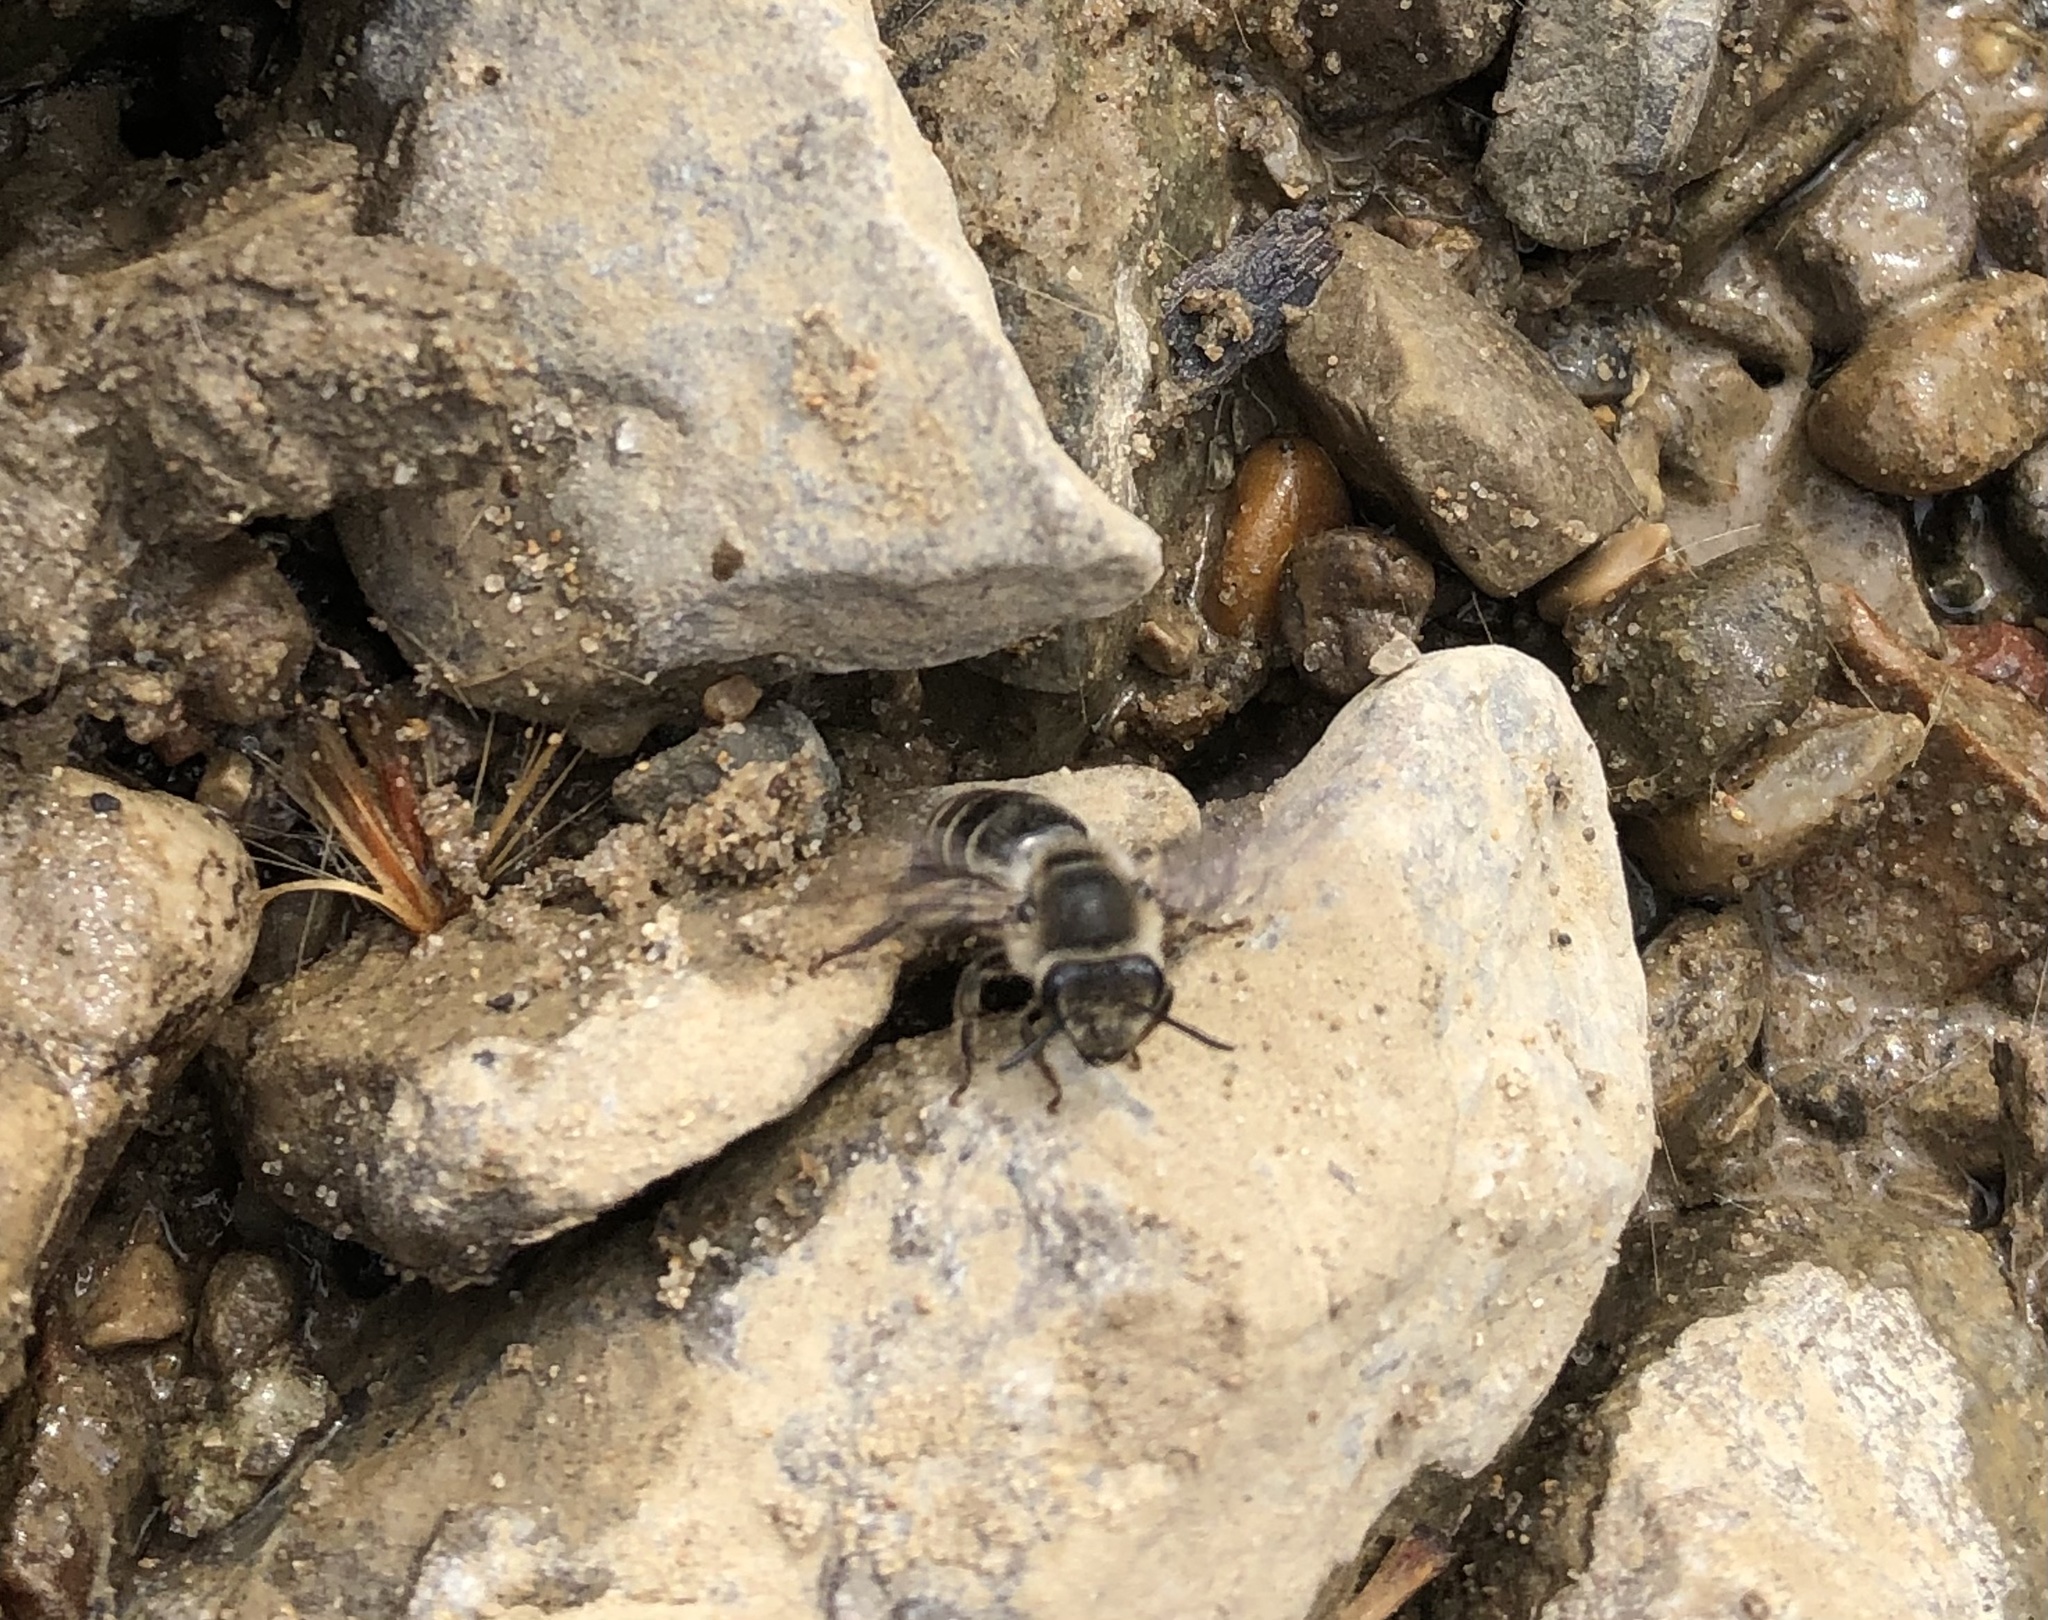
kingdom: Animalia
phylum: Arthropoda
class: Insecta
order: Hymenoptera
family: Apidae
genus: Apis
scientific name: Apis mellifera
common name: Honey bee
